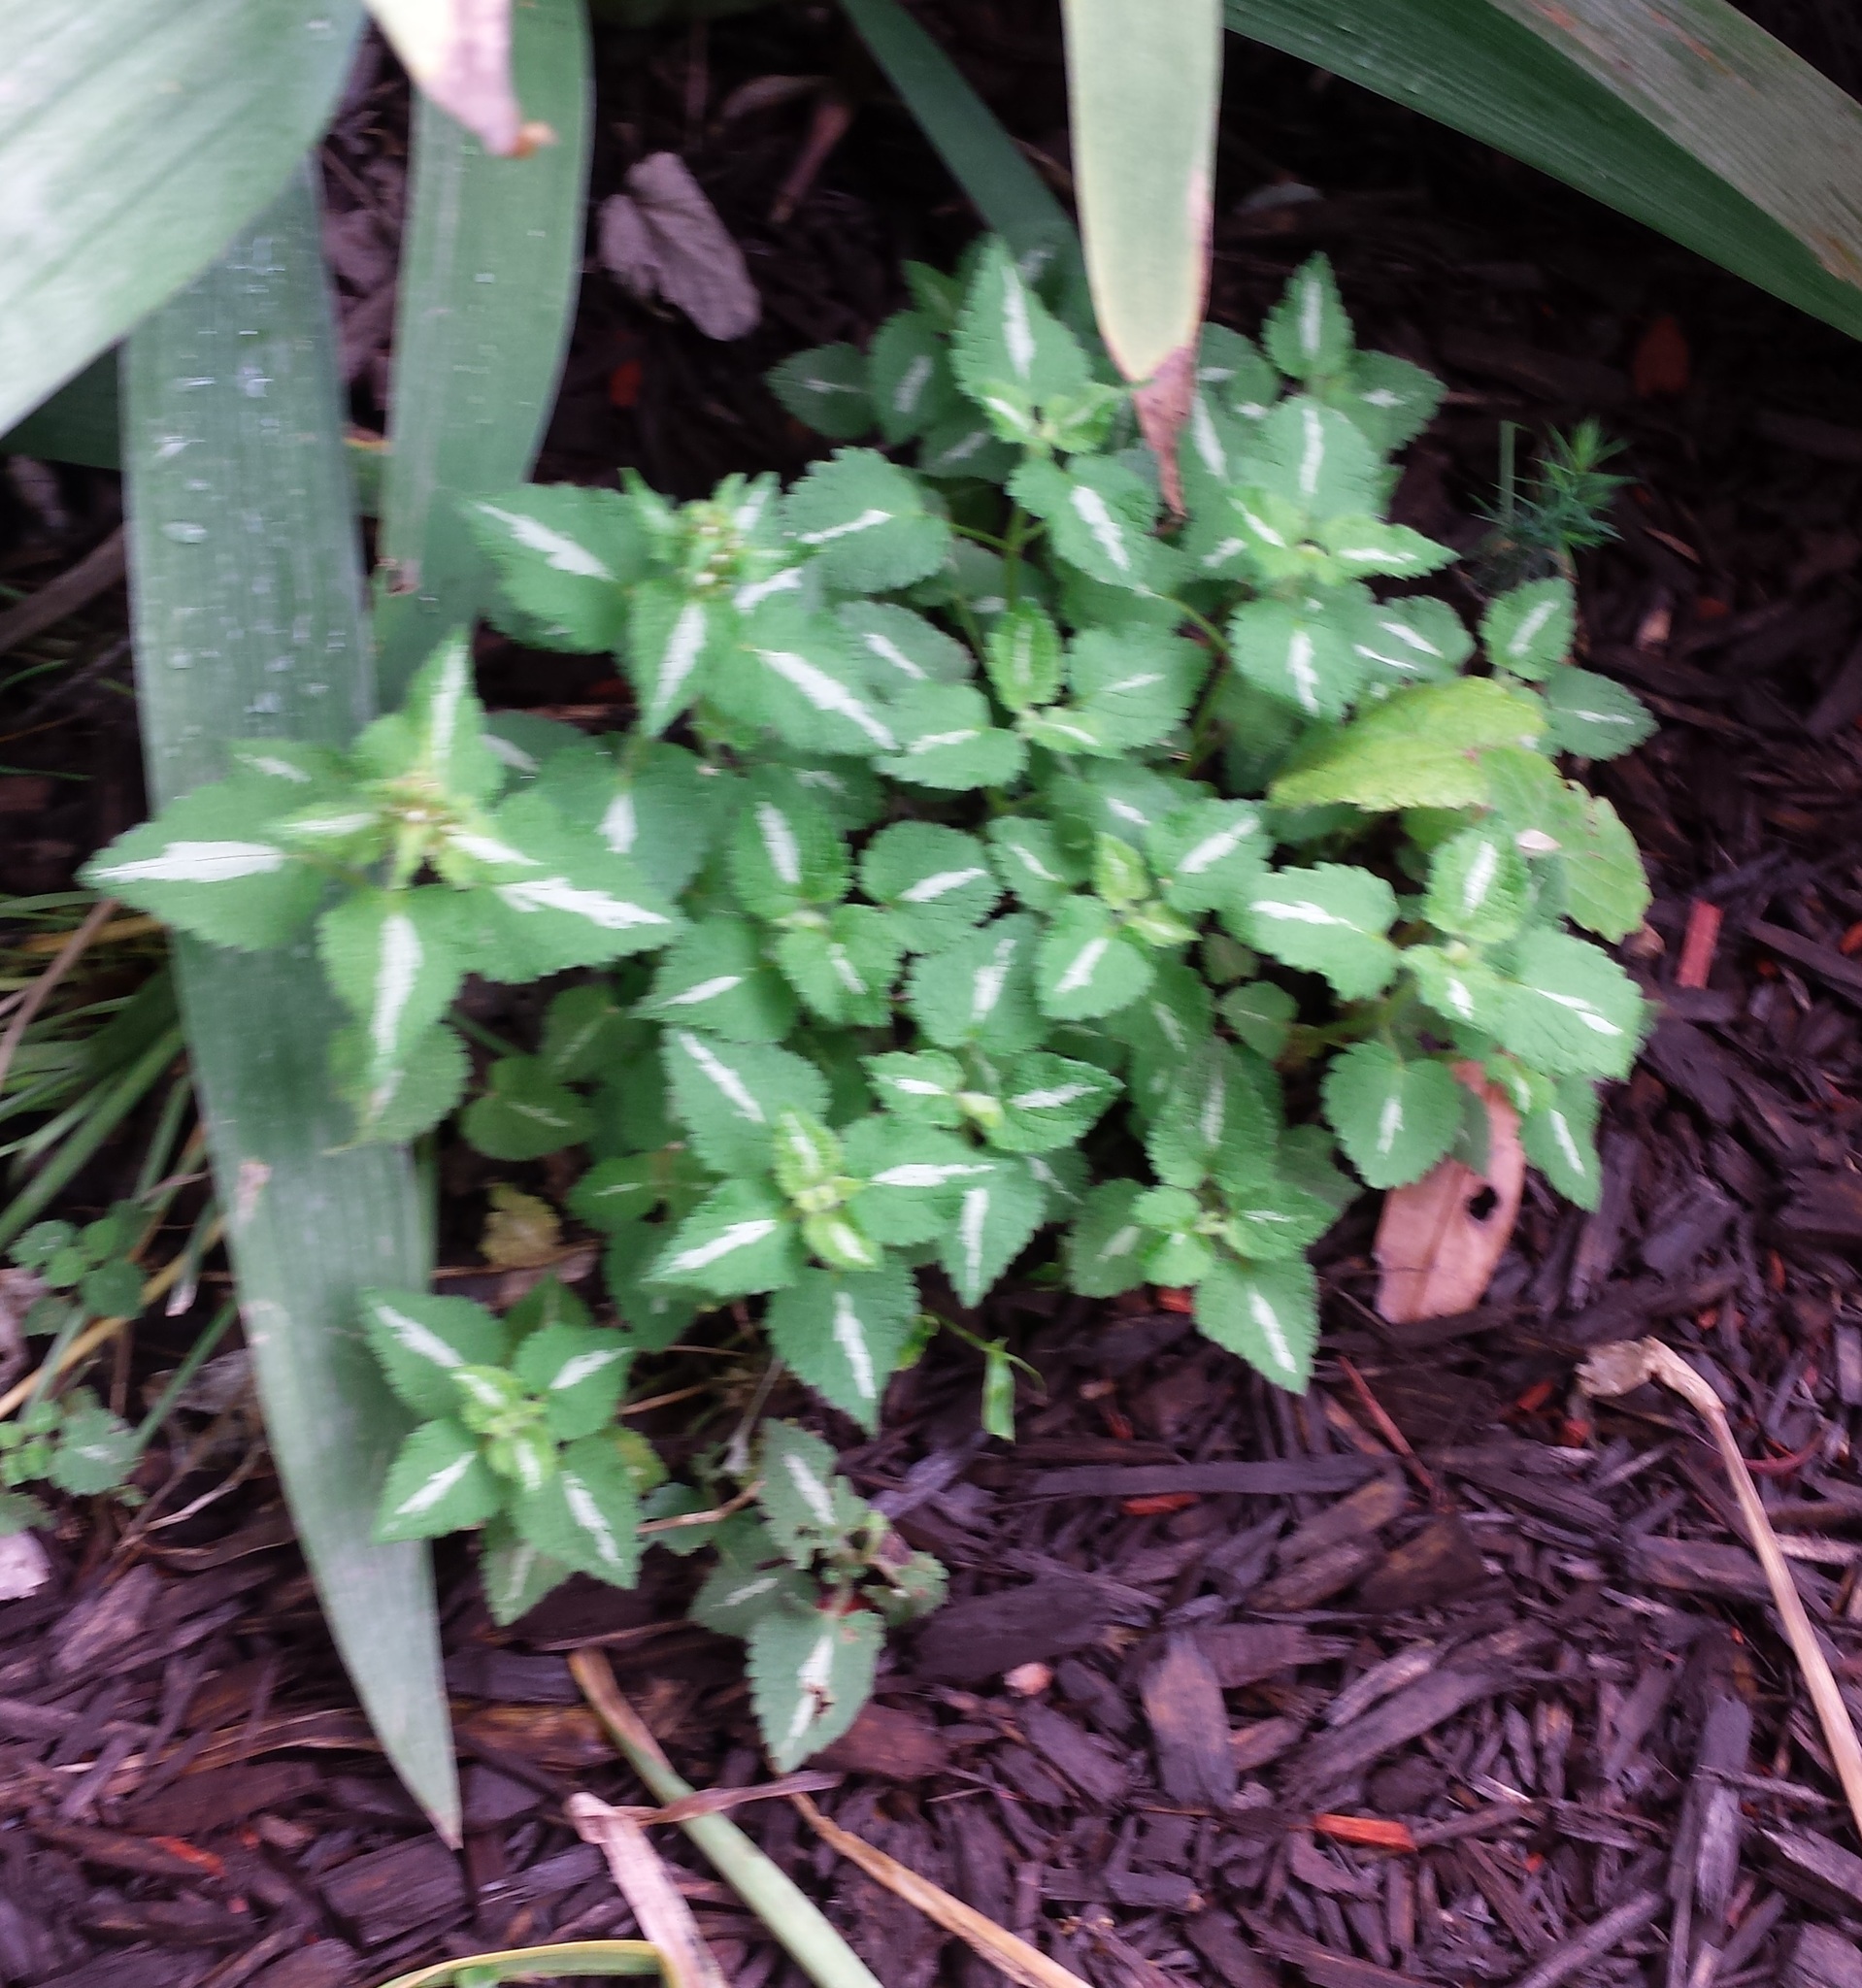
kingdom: Plantae
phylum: Tracheophyta
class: Magnoliopsida
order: Lamiales
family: Lamiaceae
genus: Lamium
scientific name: Lamium maculatum
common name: Spotted dead-nettle
